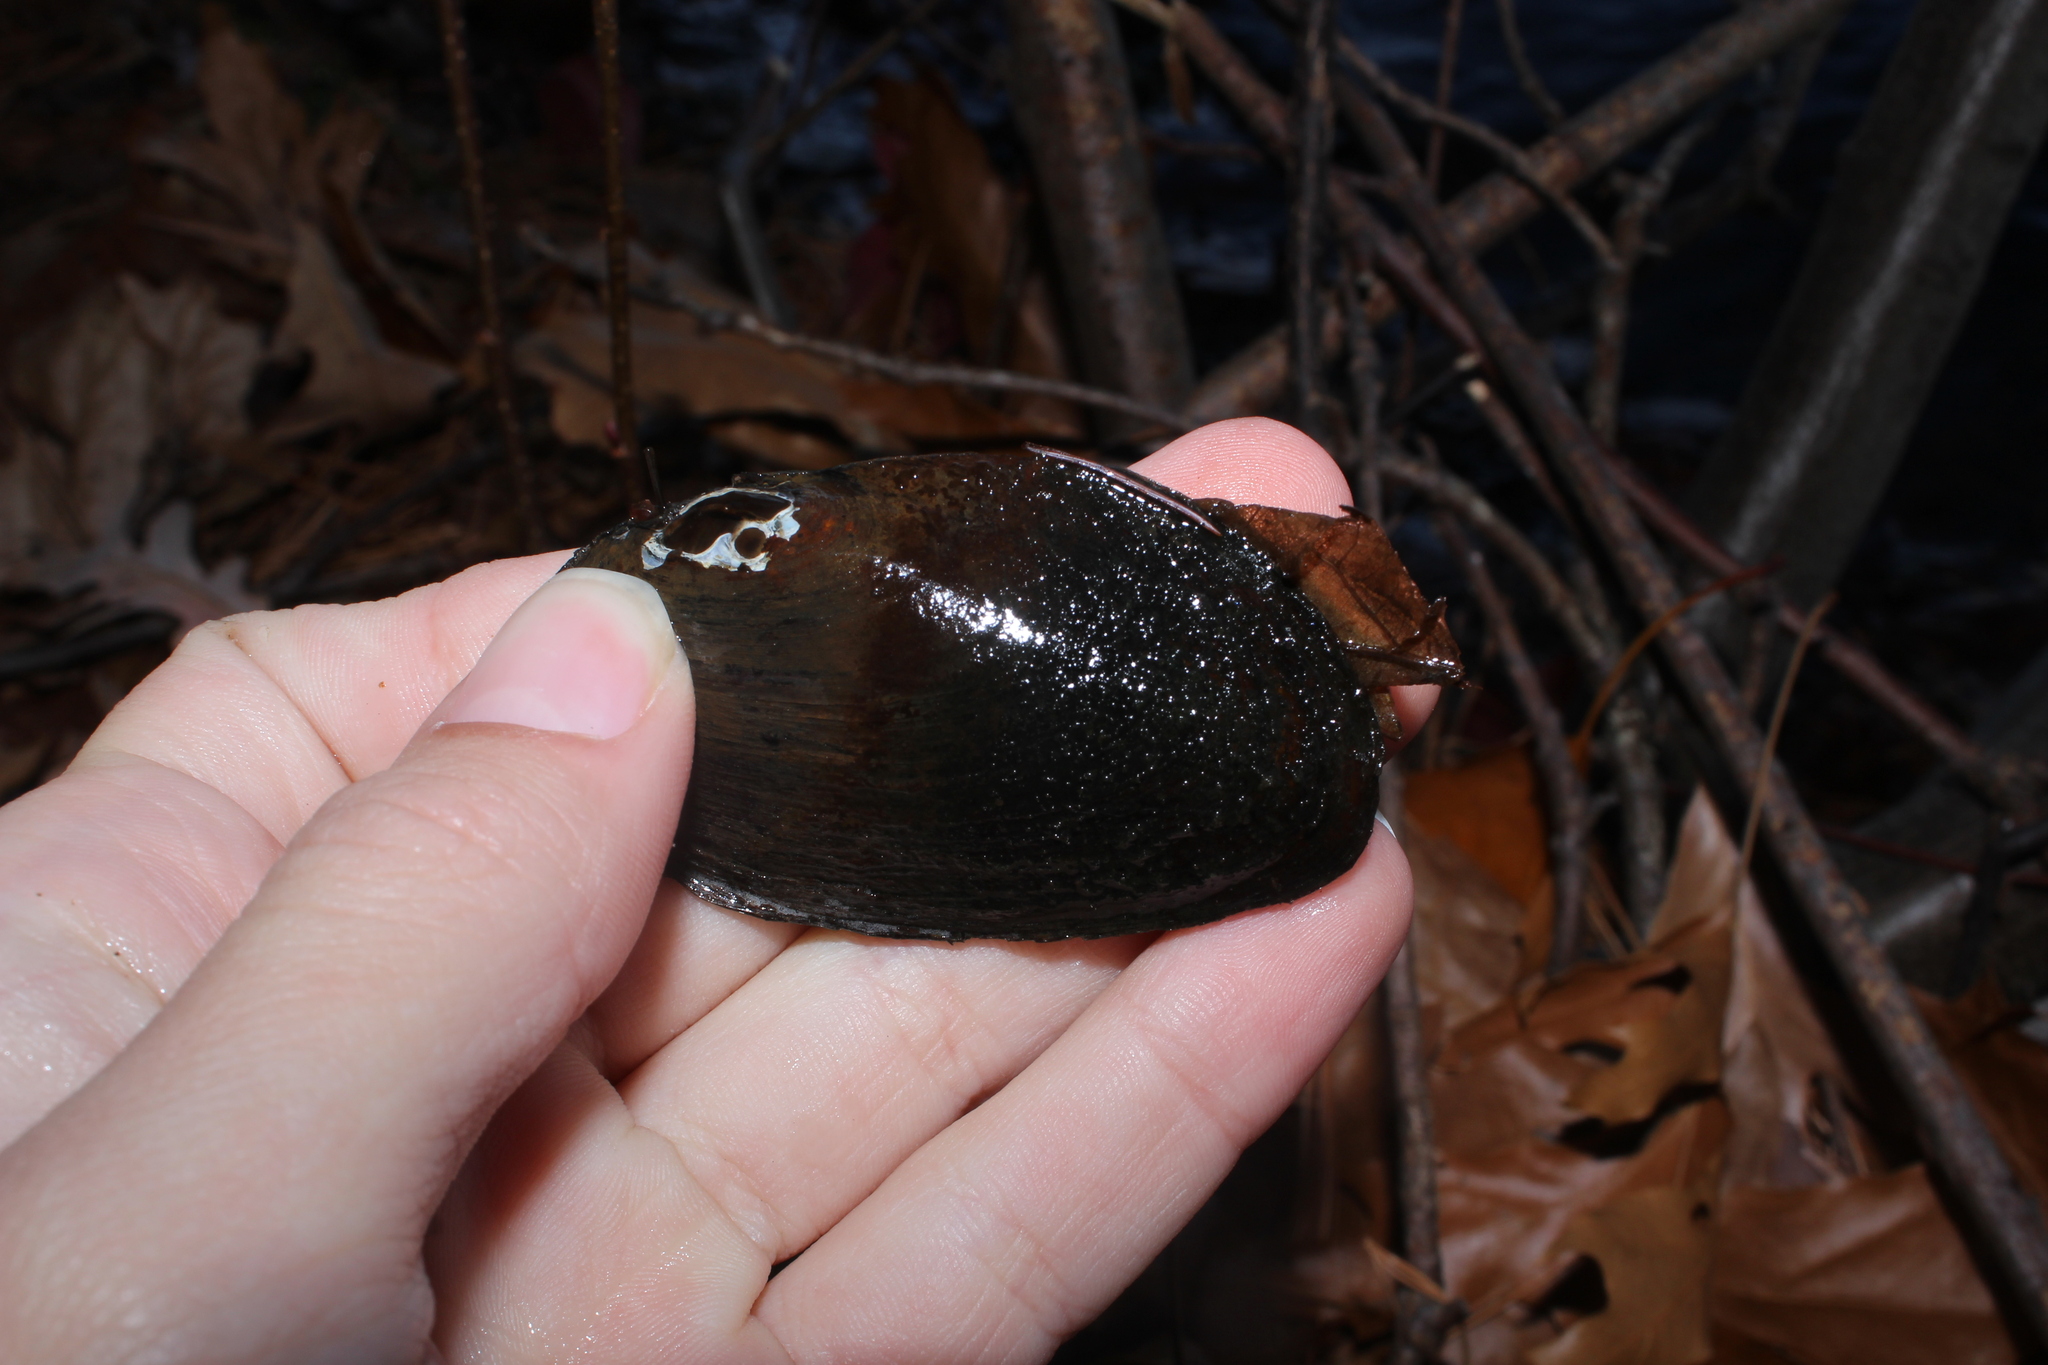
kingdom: Animalia
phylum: Mollusca
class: Bivalvia
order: Unionida
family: Unionidae
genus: Elliptio
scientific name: Elliptio complanata
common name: Eastern elliptio
